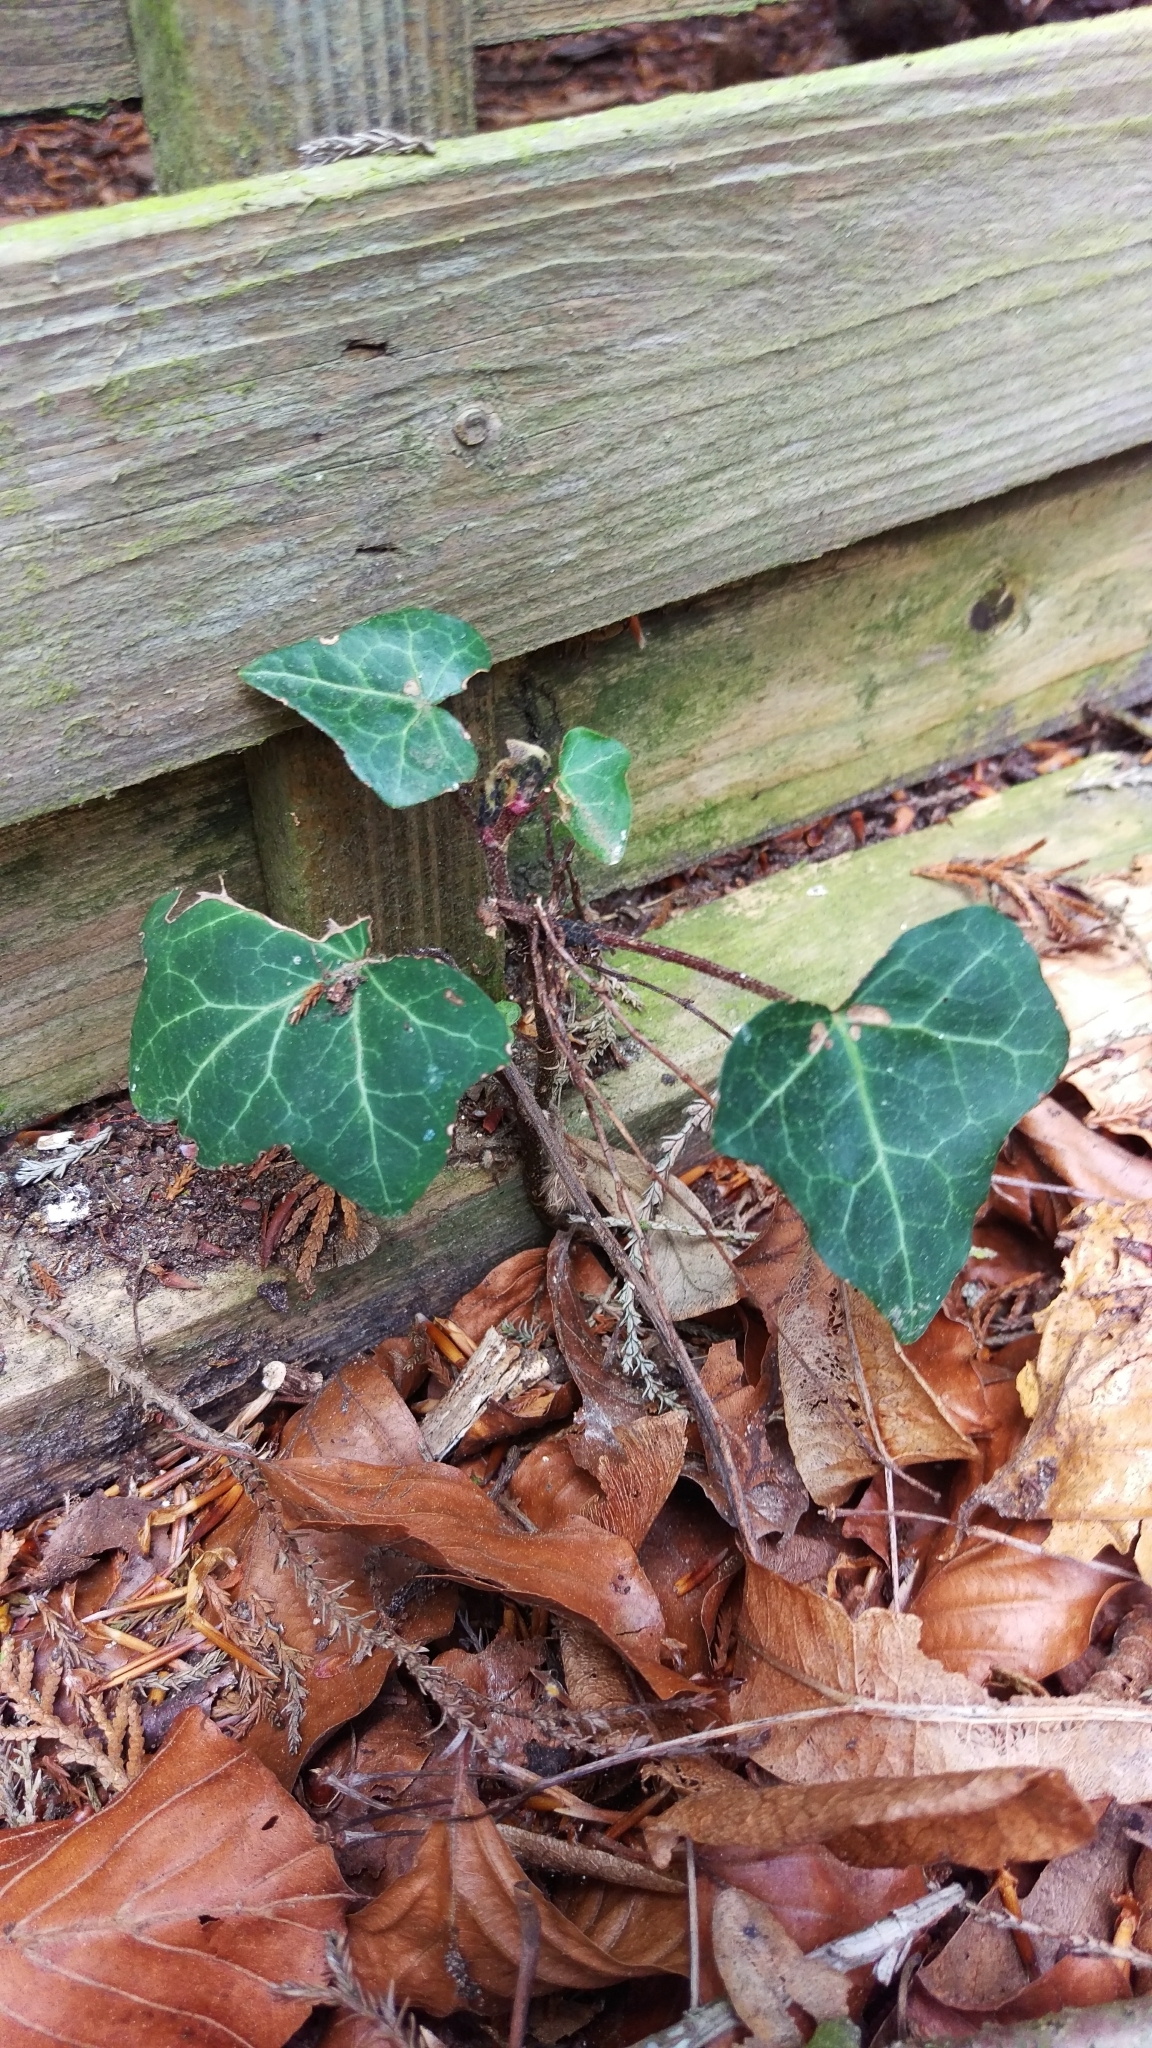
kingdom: Plantae
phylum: Tracheophyta
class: Magnoliopsida
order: Apiales
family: Araliaceae
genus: Hedera
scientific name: Hedera helix
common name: Ivy
